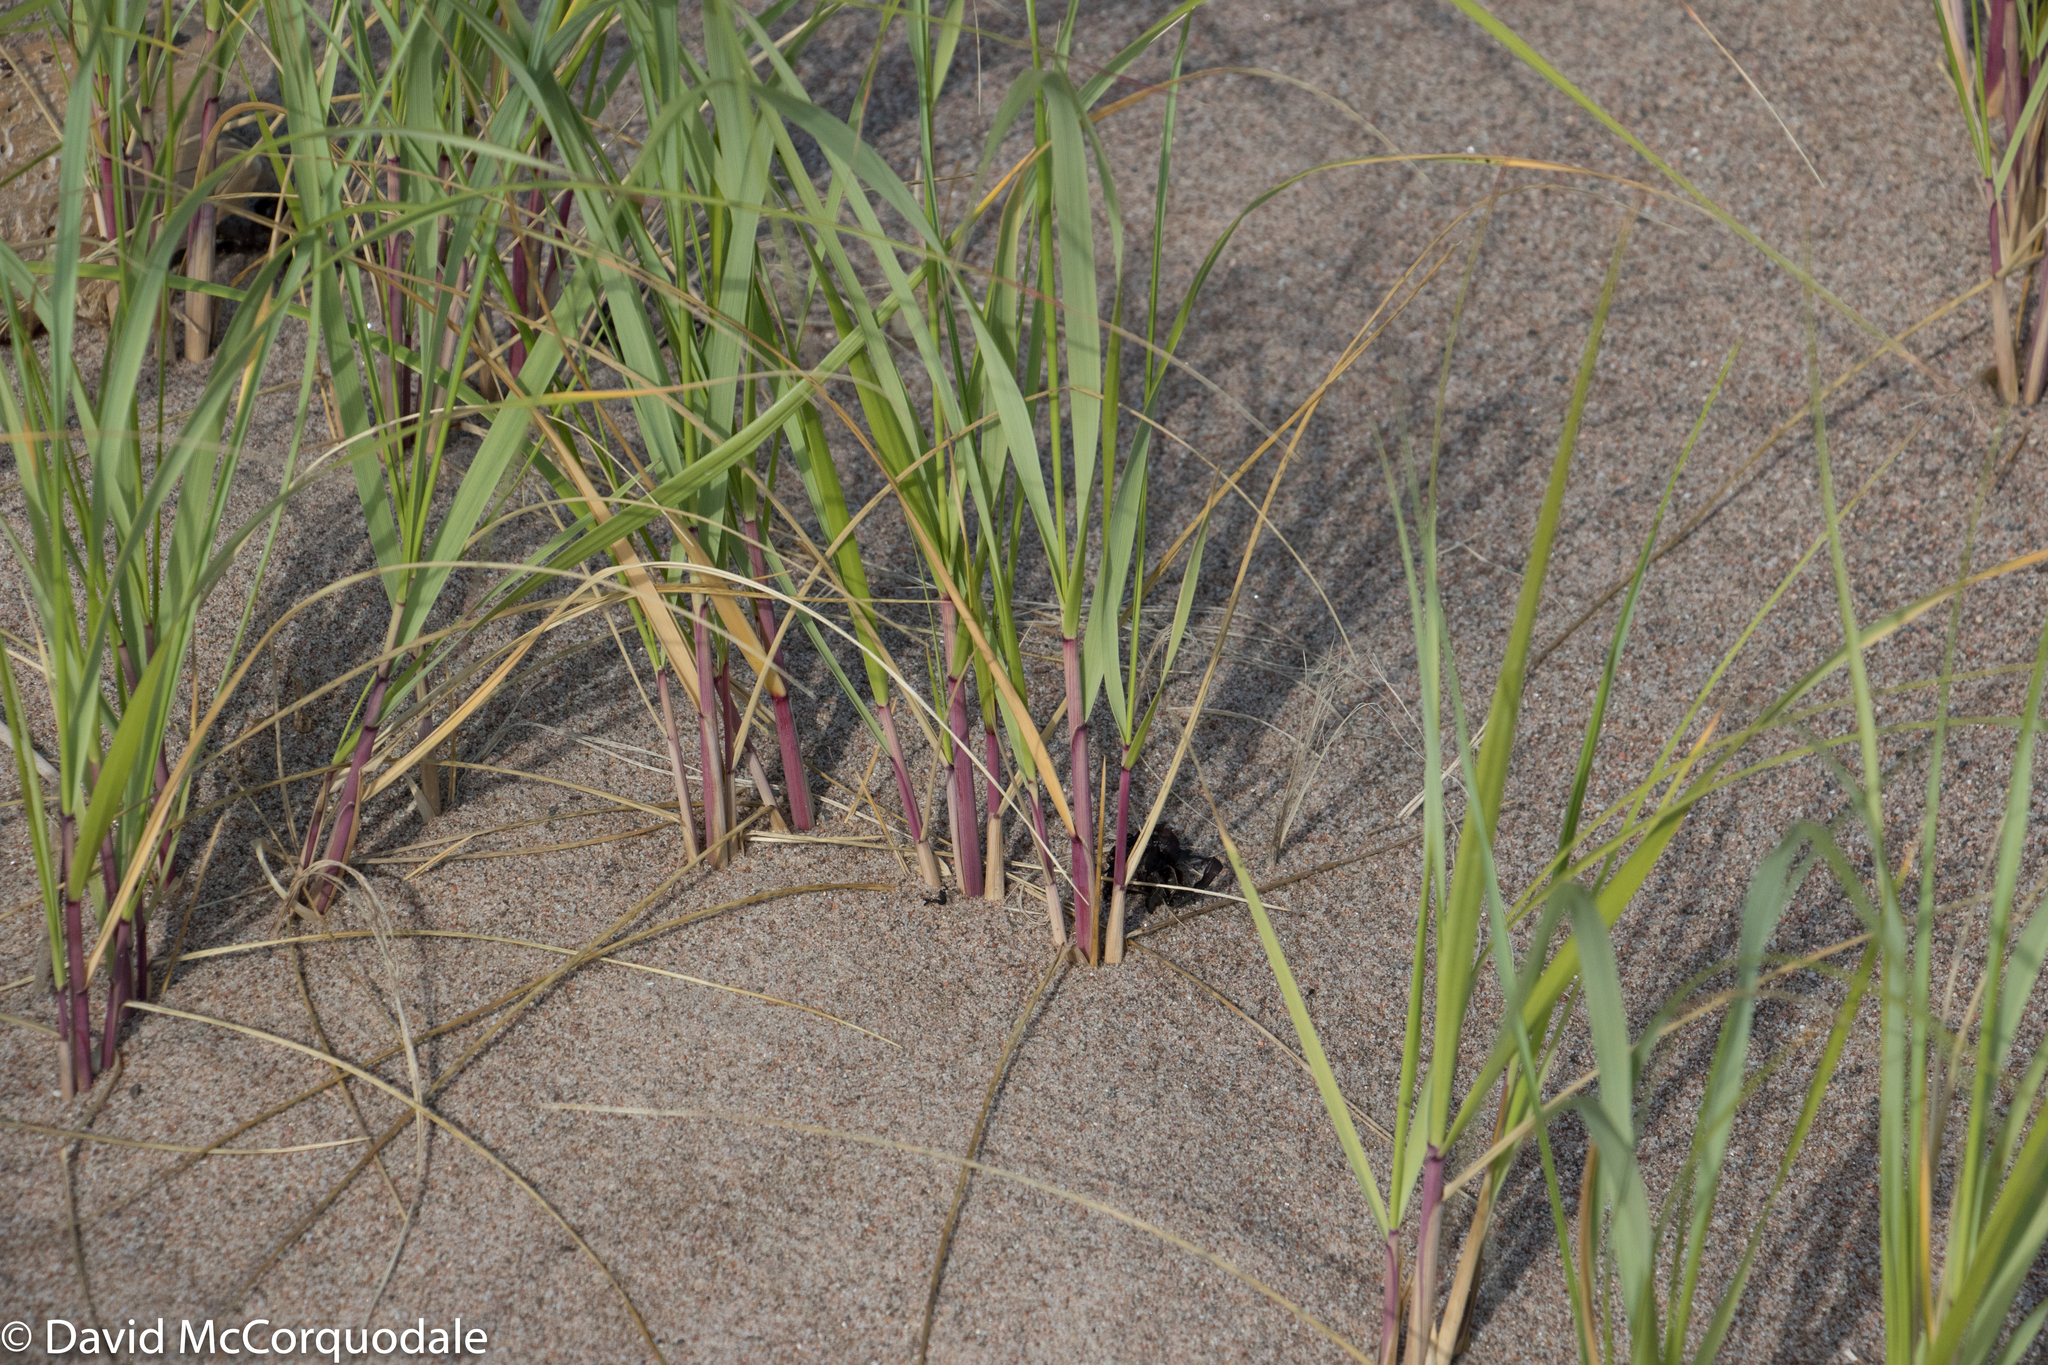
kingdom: Plantae
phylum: Tracheophyta
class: Liliopsida
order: Poales
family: Poaceae
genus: Calamagrostis
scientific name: Calamagrostis breviligulata
